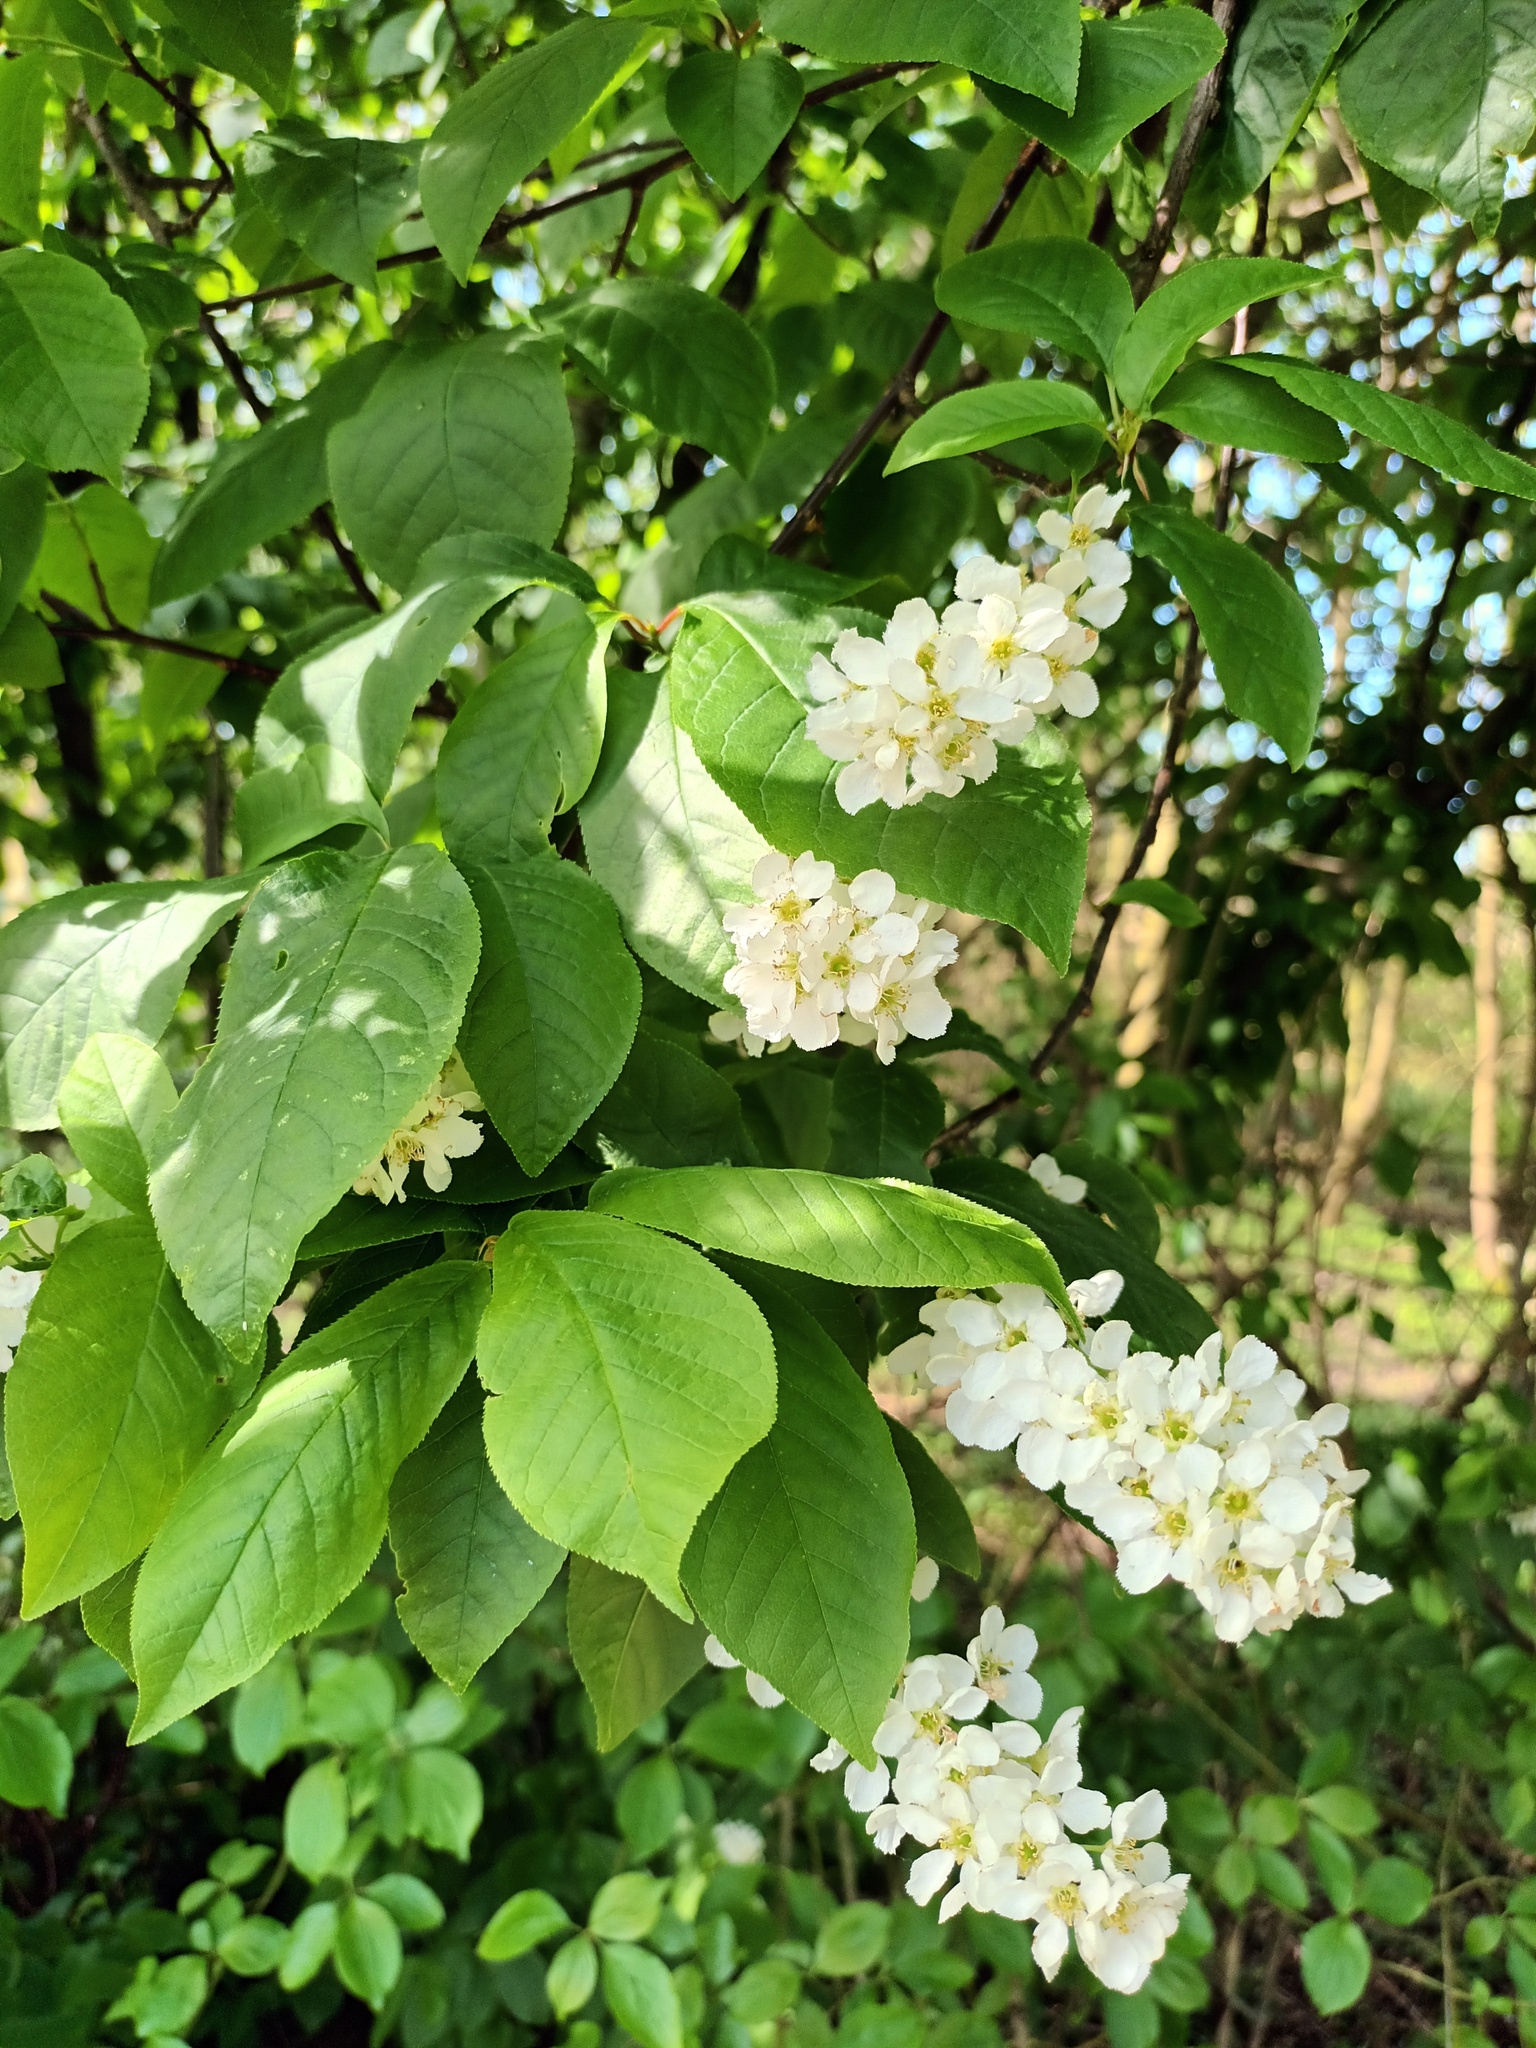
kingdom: Plantae
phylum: Tracheophyta
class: Magnoliopsida
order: Rosales
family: Rosaceae
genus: Prunus
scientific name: Prunus padus
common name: Bird cherry
